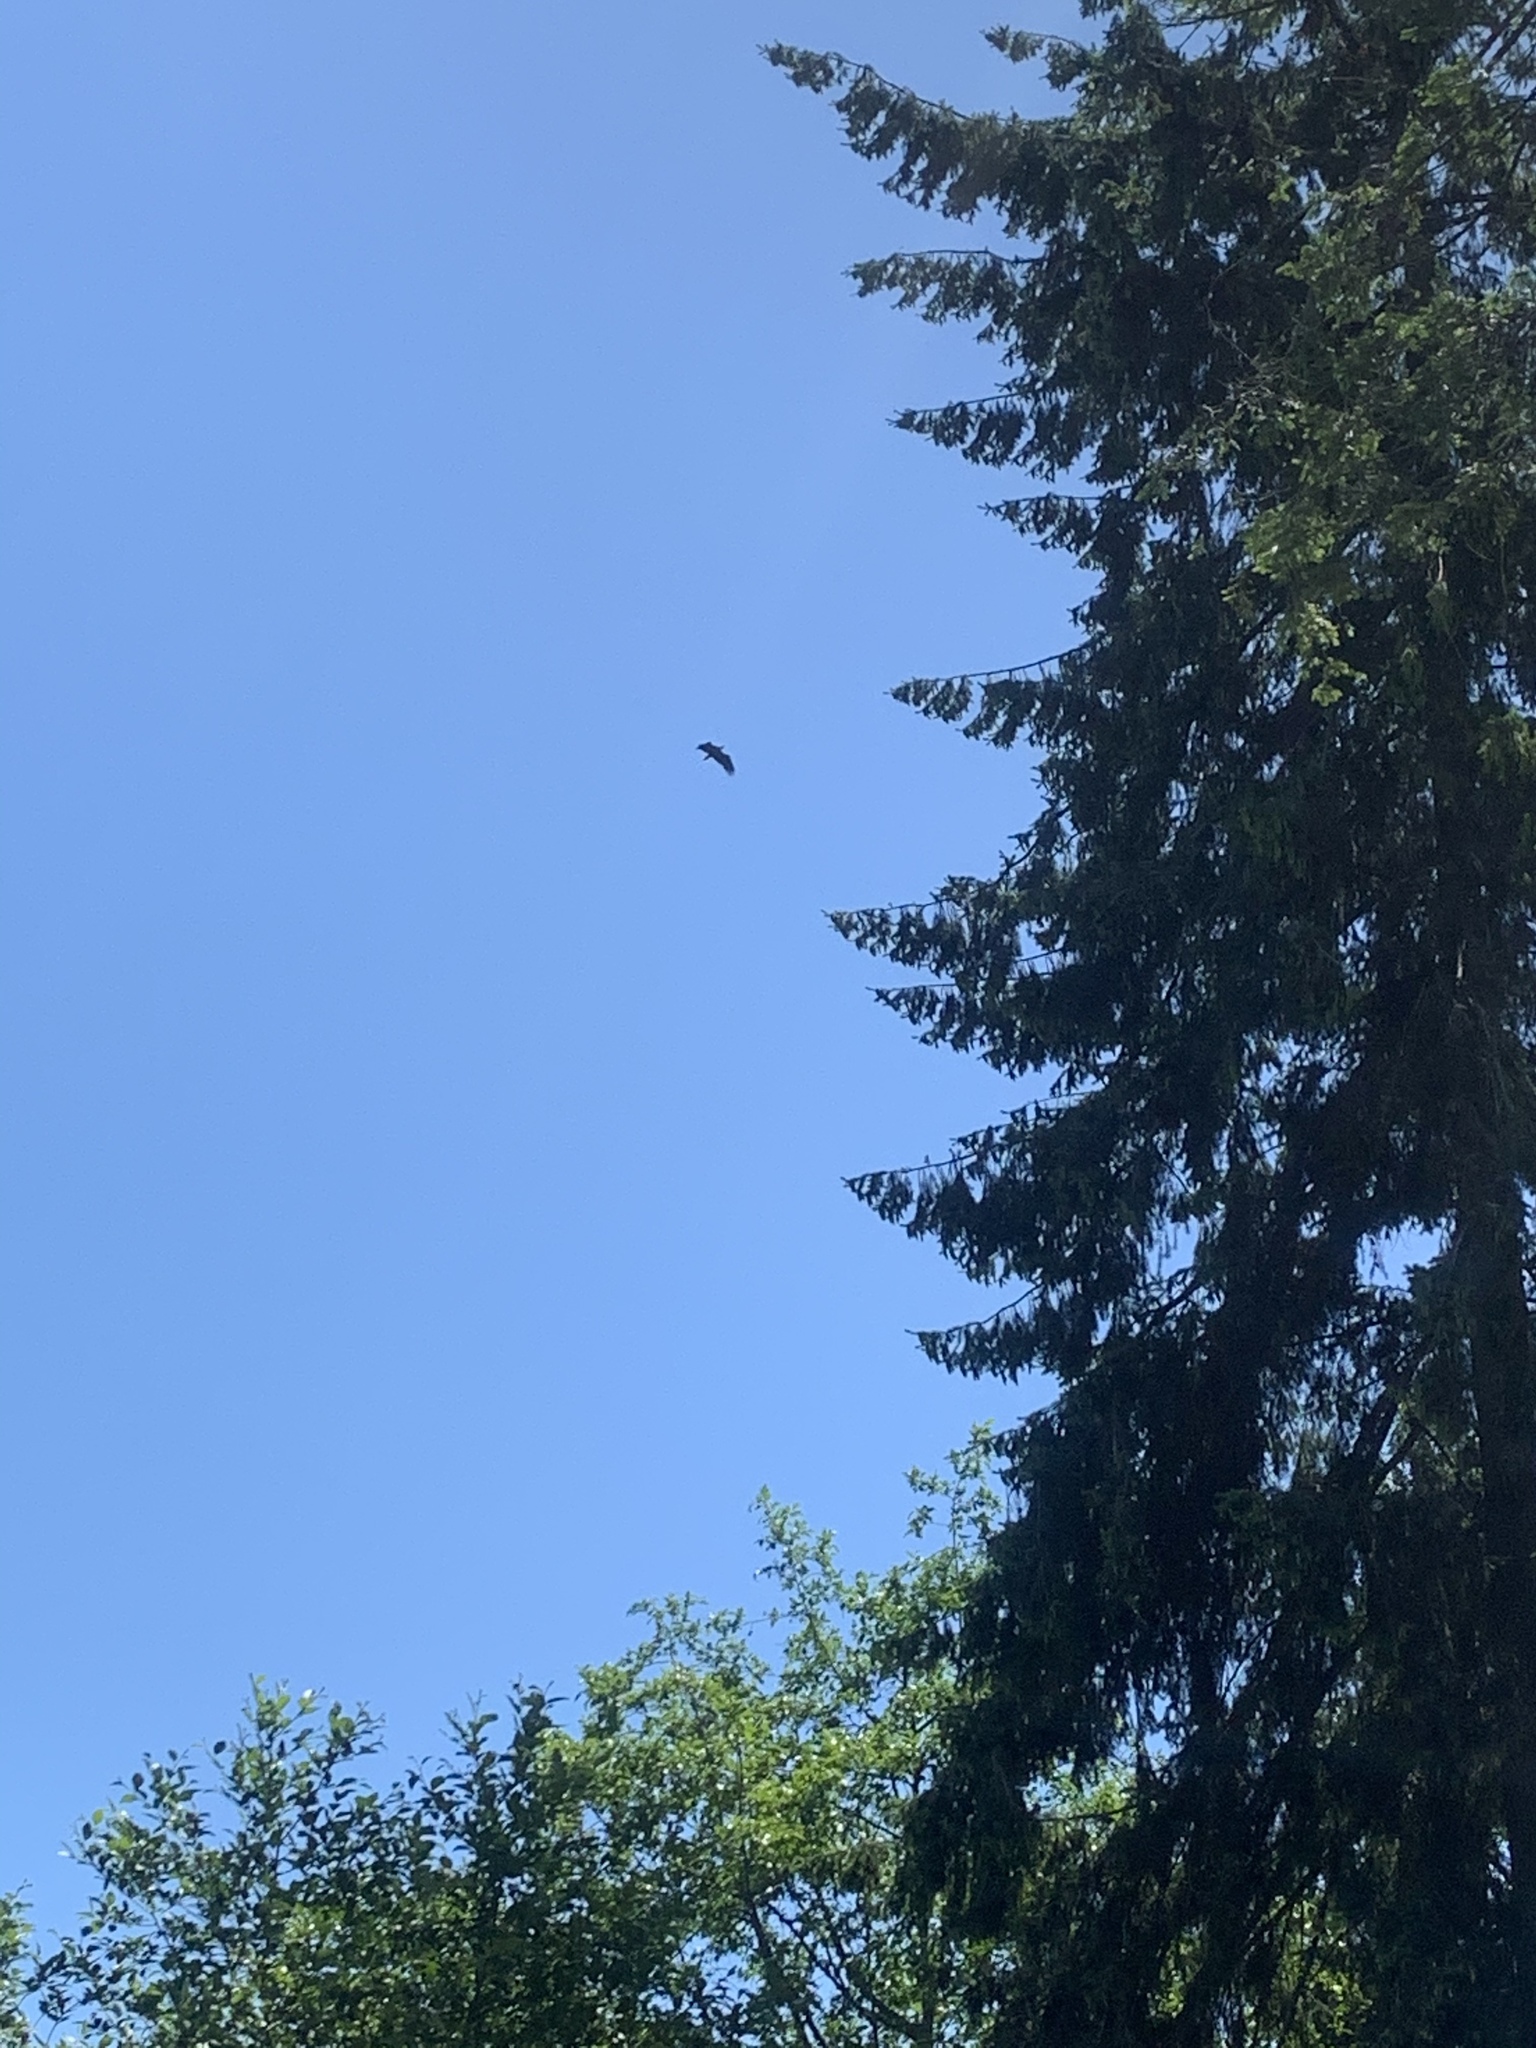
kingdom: Animalia
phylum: Chordata
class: Aves
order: Accipitriformes
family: Accipitridae
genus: Haliaeetus
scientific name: Haliaeetus leucocephalus
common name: Bald eagle
